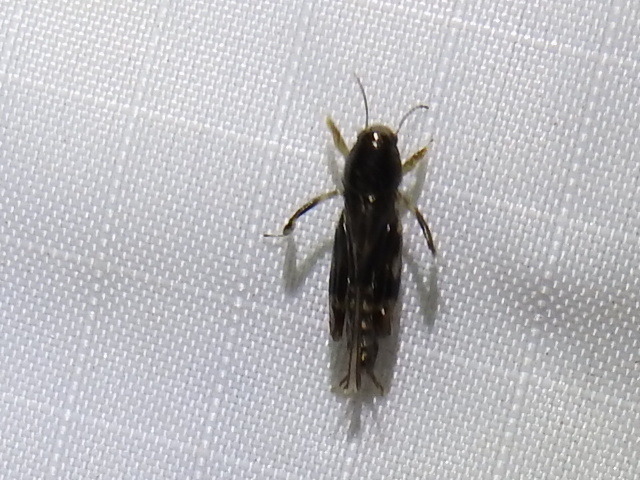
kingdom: Animalia
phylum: Arthropoda
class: Insecta
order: Orthoptera
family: Tridactylidae
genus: Neotridactylus
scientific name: Neotridactylus apicialis
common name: Larger pygmy locust
